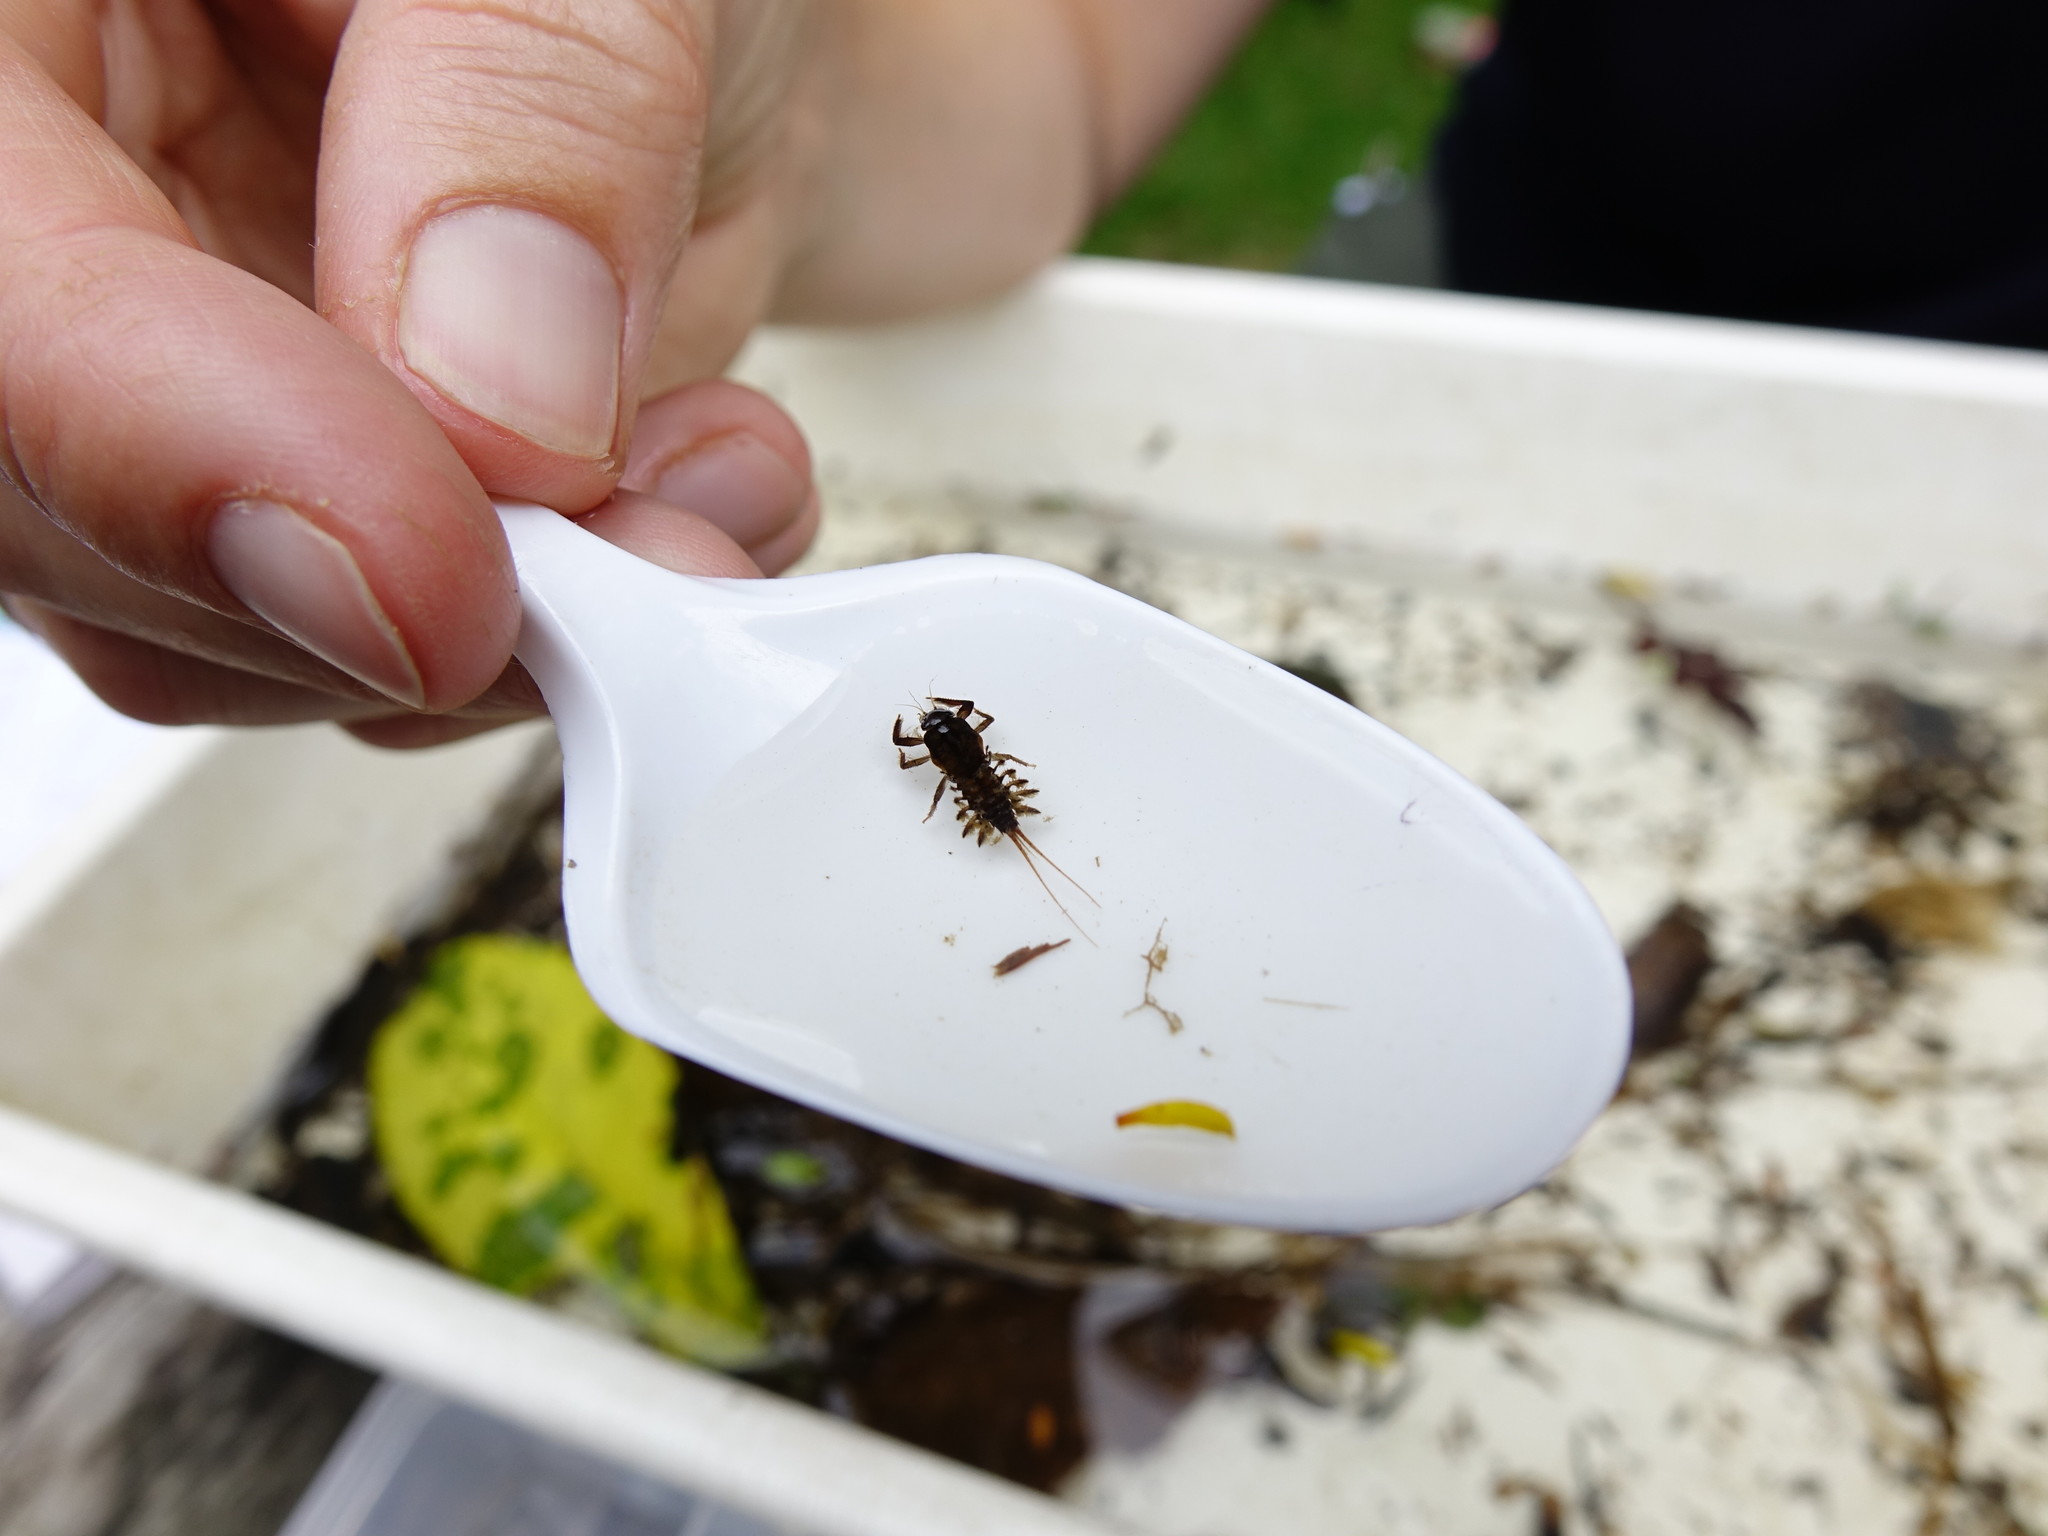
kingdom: Animalia
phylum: Arthropoda
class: Insecta
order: Ephemeroptera
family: Coloburiscidae
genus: Coloburiscus
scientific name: Coloburiscus humeralis
